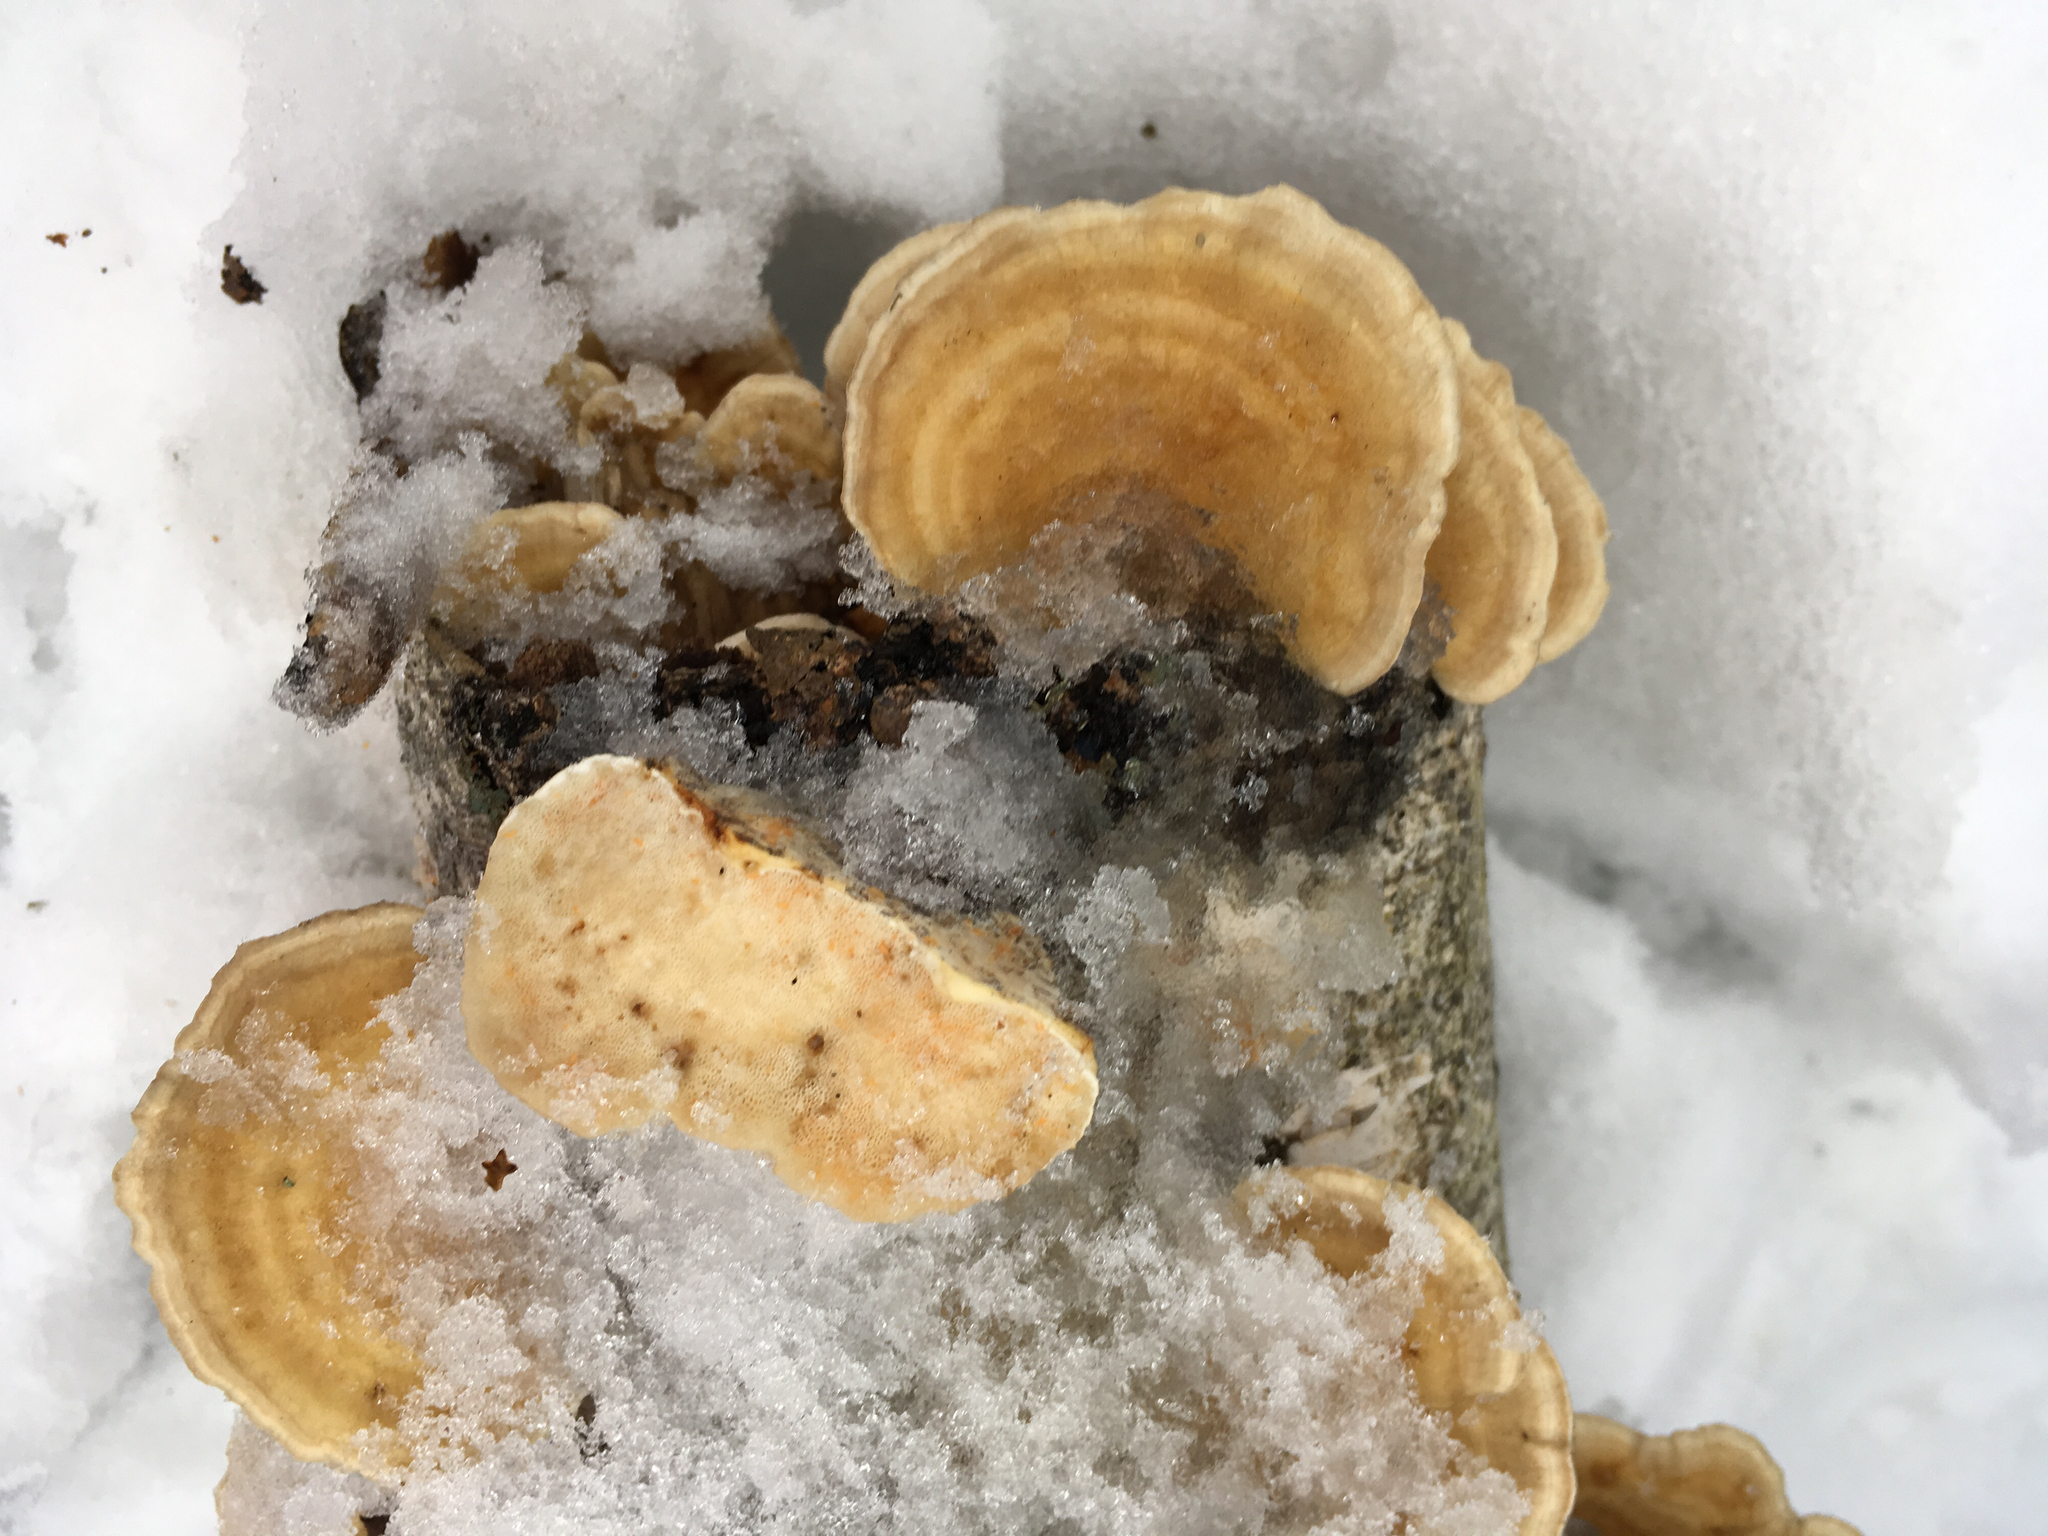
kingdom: Fungi
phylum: Basidiomycota
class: Agaricomycetes
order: Polyporales
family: Polyporaceae
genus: Trametes
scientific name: Trametes ochracea
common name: Ochre bracket
